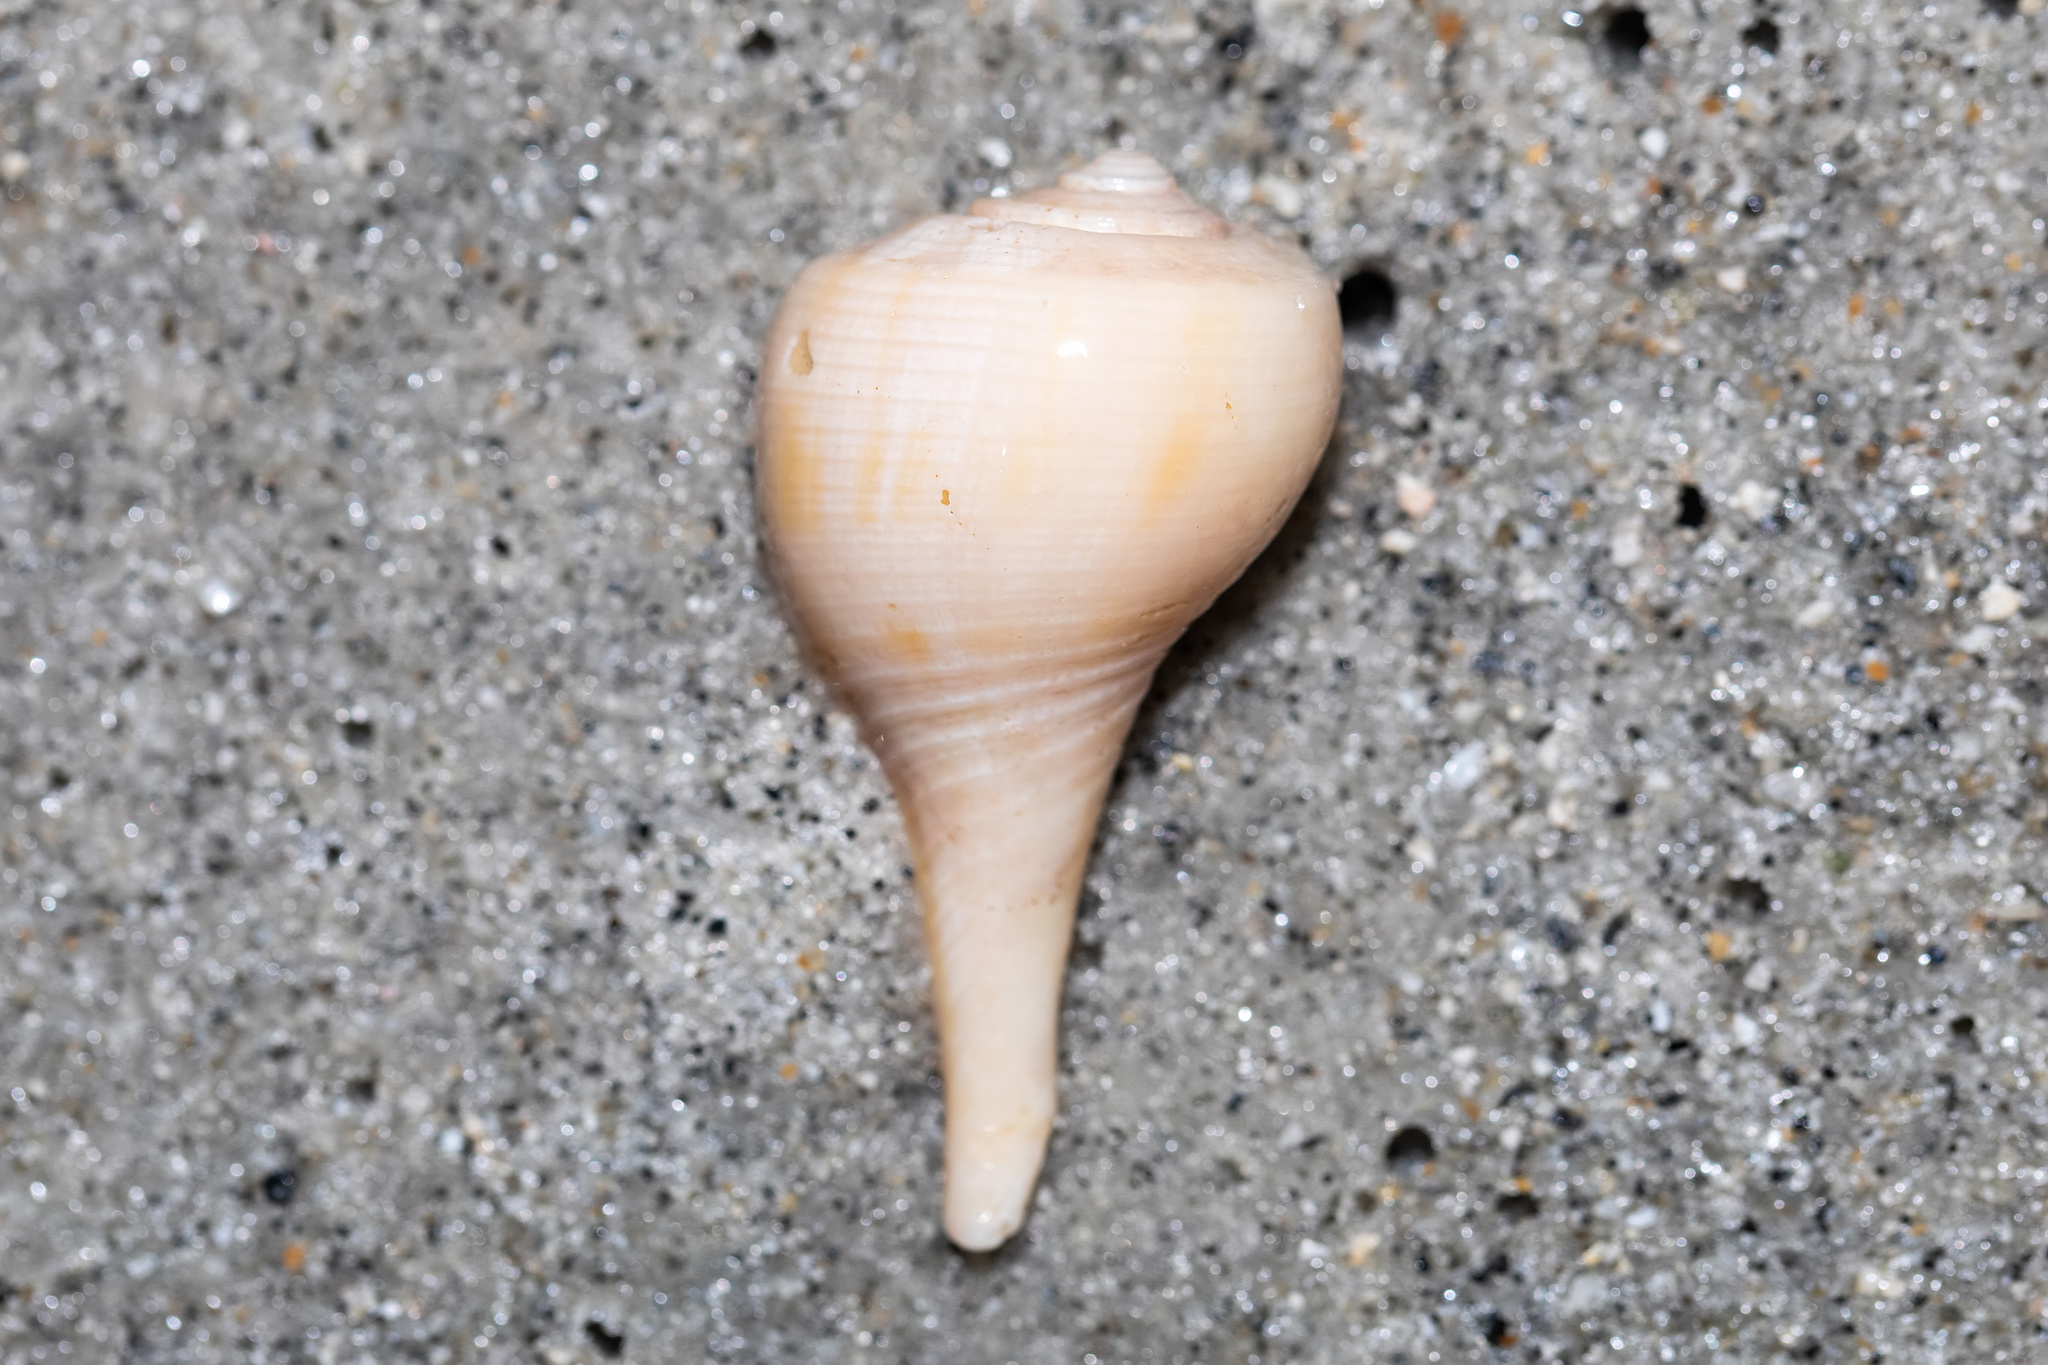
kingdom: Animalia
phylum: Mollusca
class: Gastropoda
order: Neogastropoda
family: Busyconidae
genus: Fulguropsis
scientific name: Fulguropsis pyruloides
